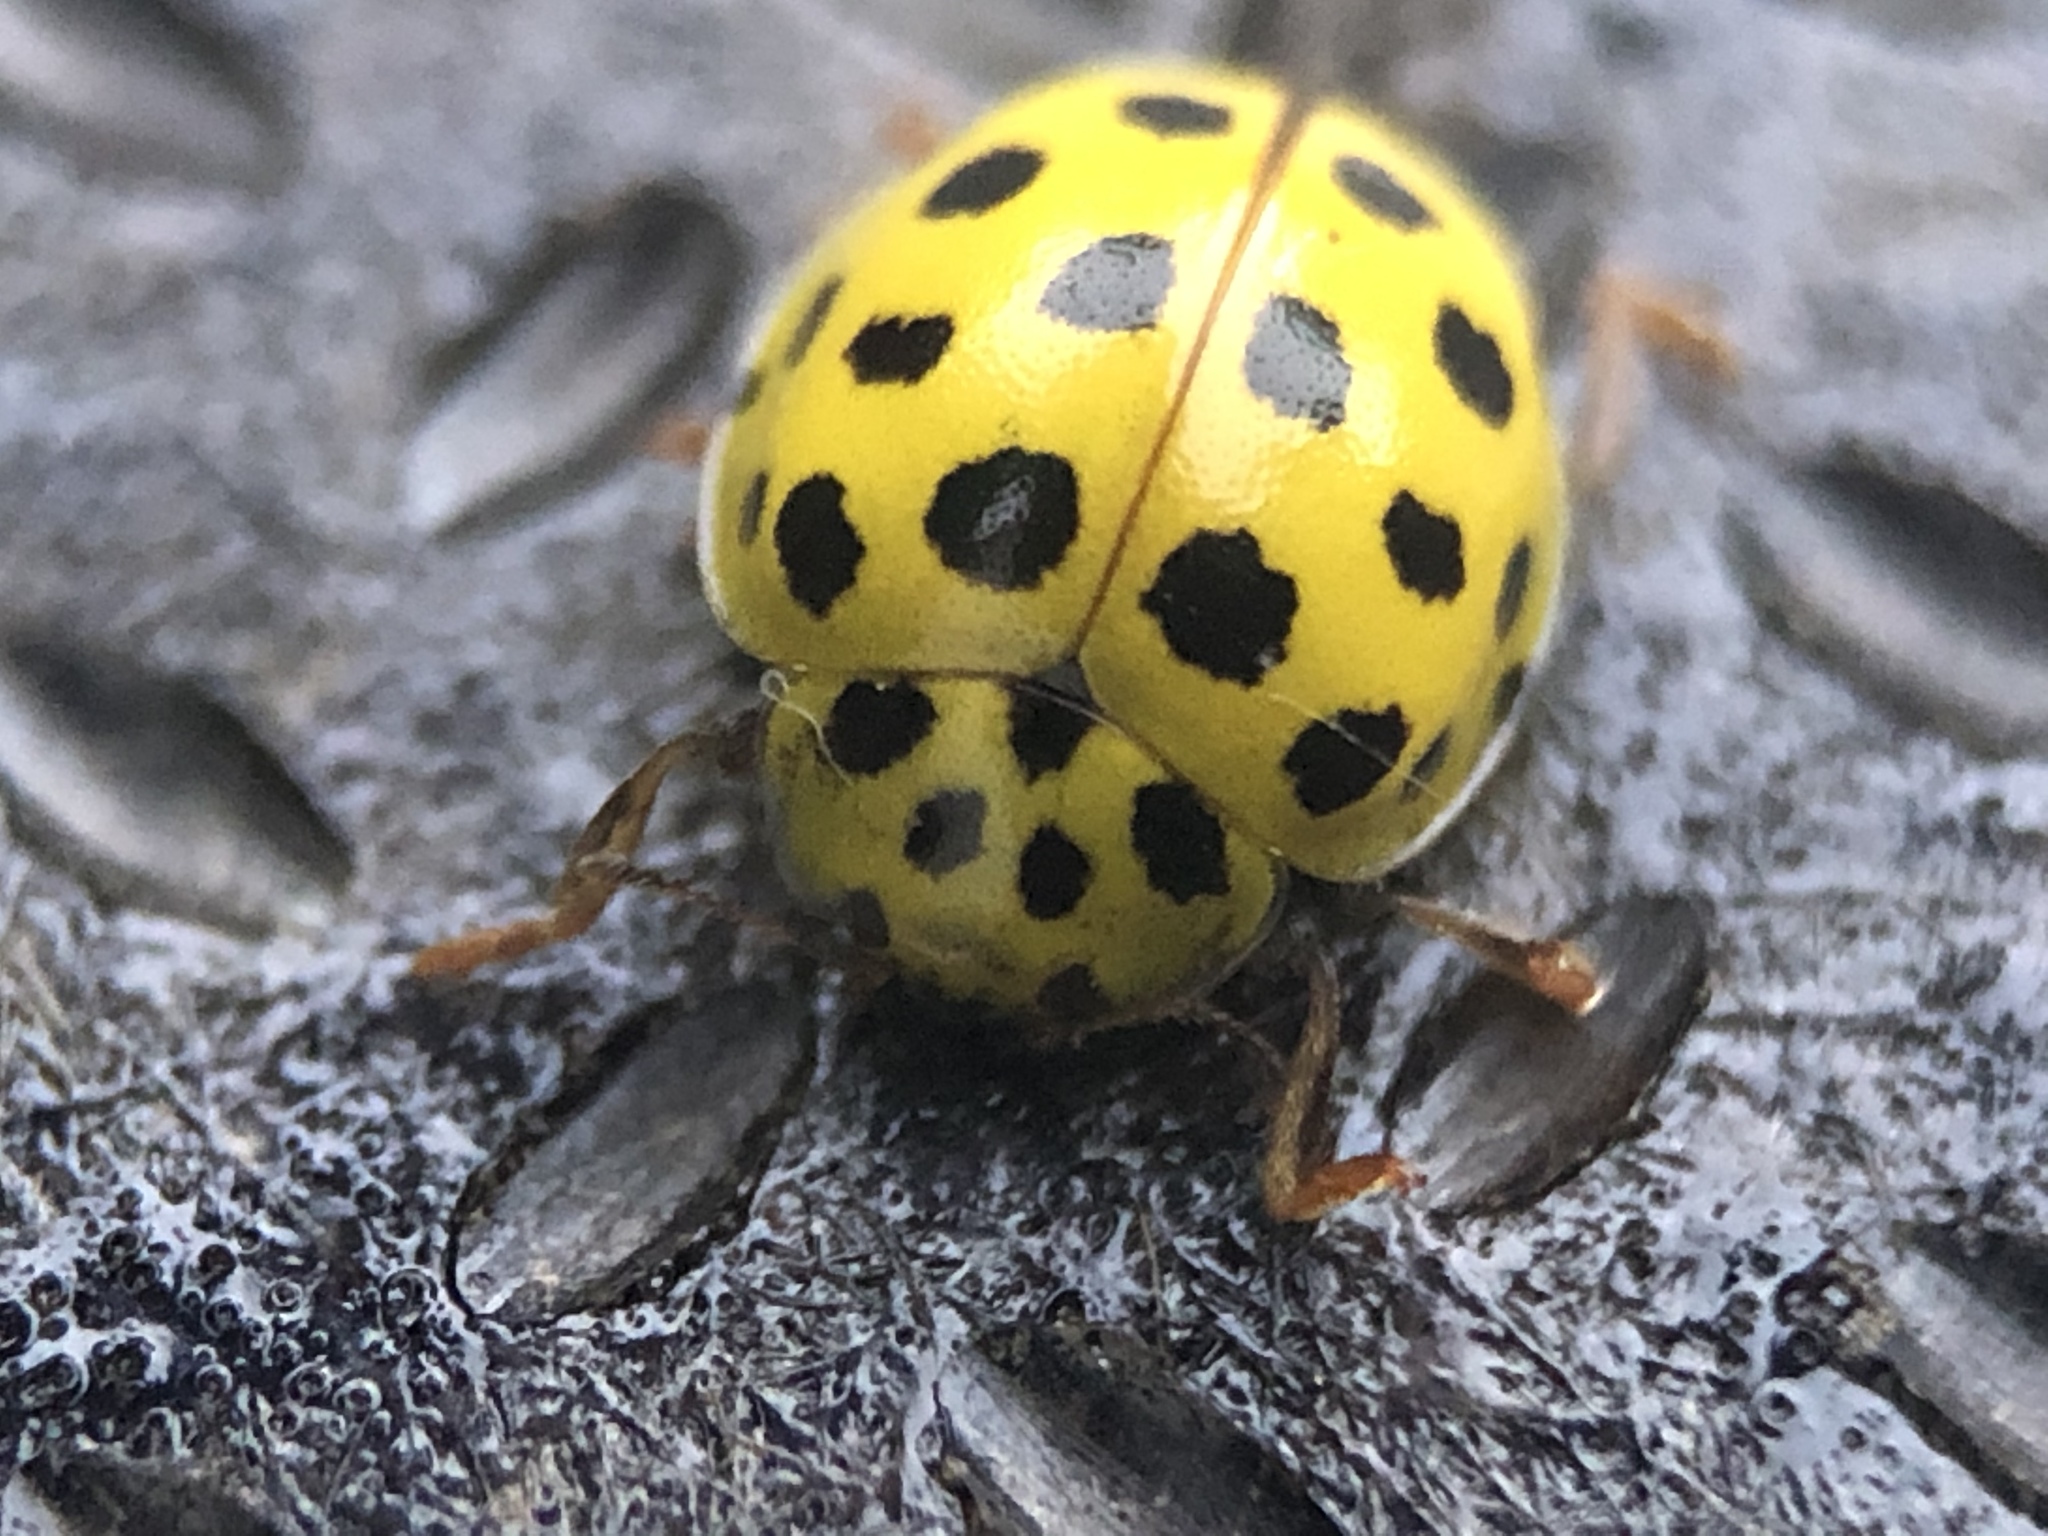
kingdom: Animalia
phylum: Arthropoda
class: Insecta
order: Coleoptera
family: Coccinellidae
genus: Psyllobora
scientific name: Psyllobora vigintiduopunctata
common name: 22-spot ladybird
